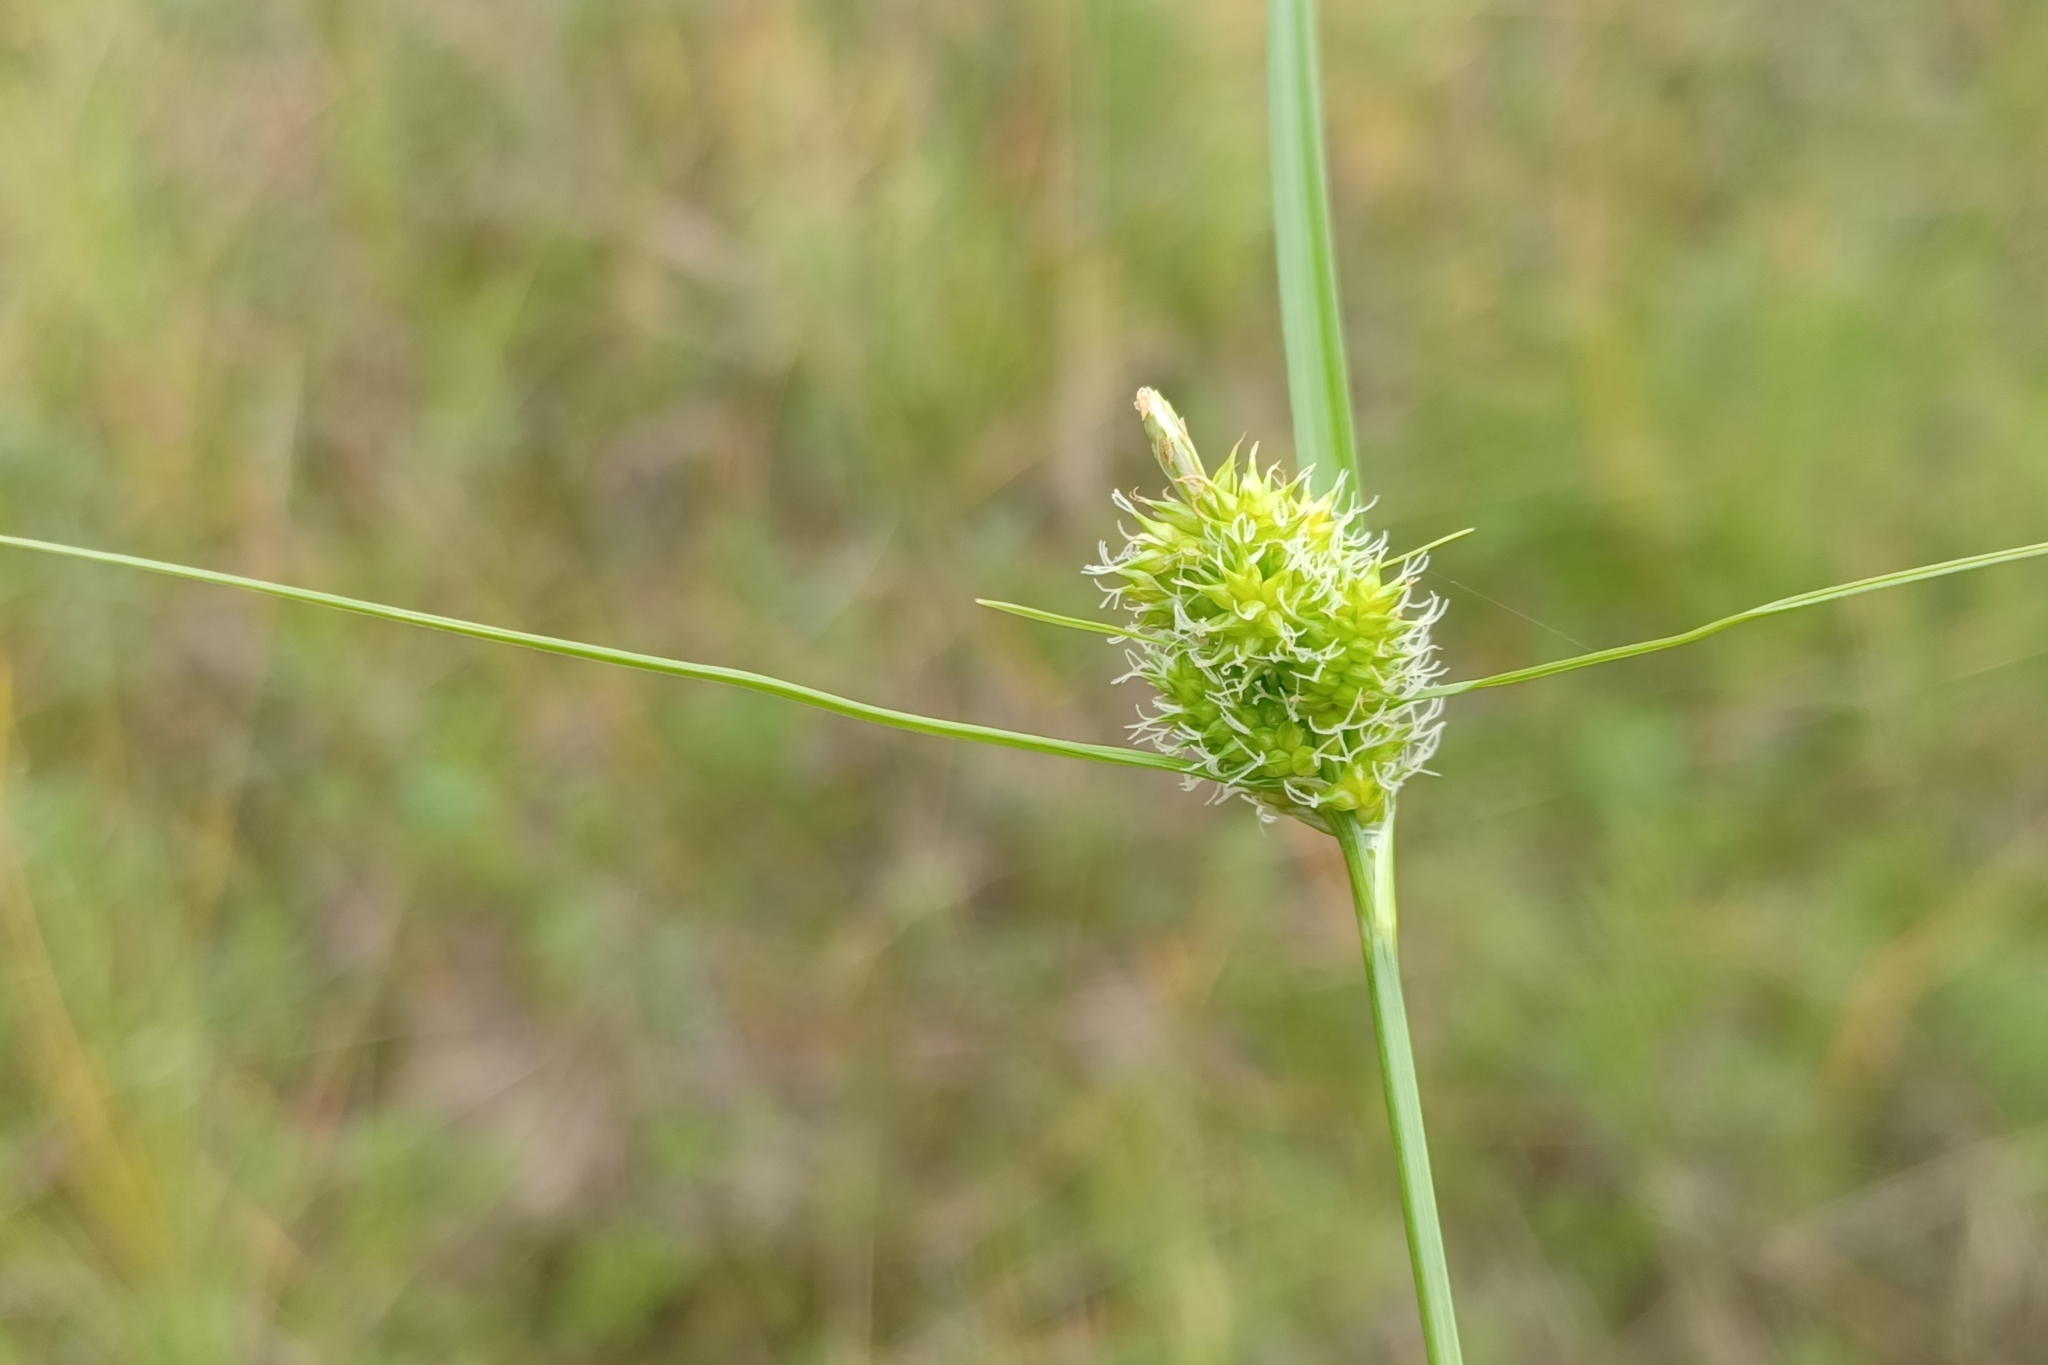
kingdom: Plantae
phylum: Tracheophyta
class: Liliopsida
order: Poales
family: Cyperaceae
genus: Carex
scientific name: Carex
